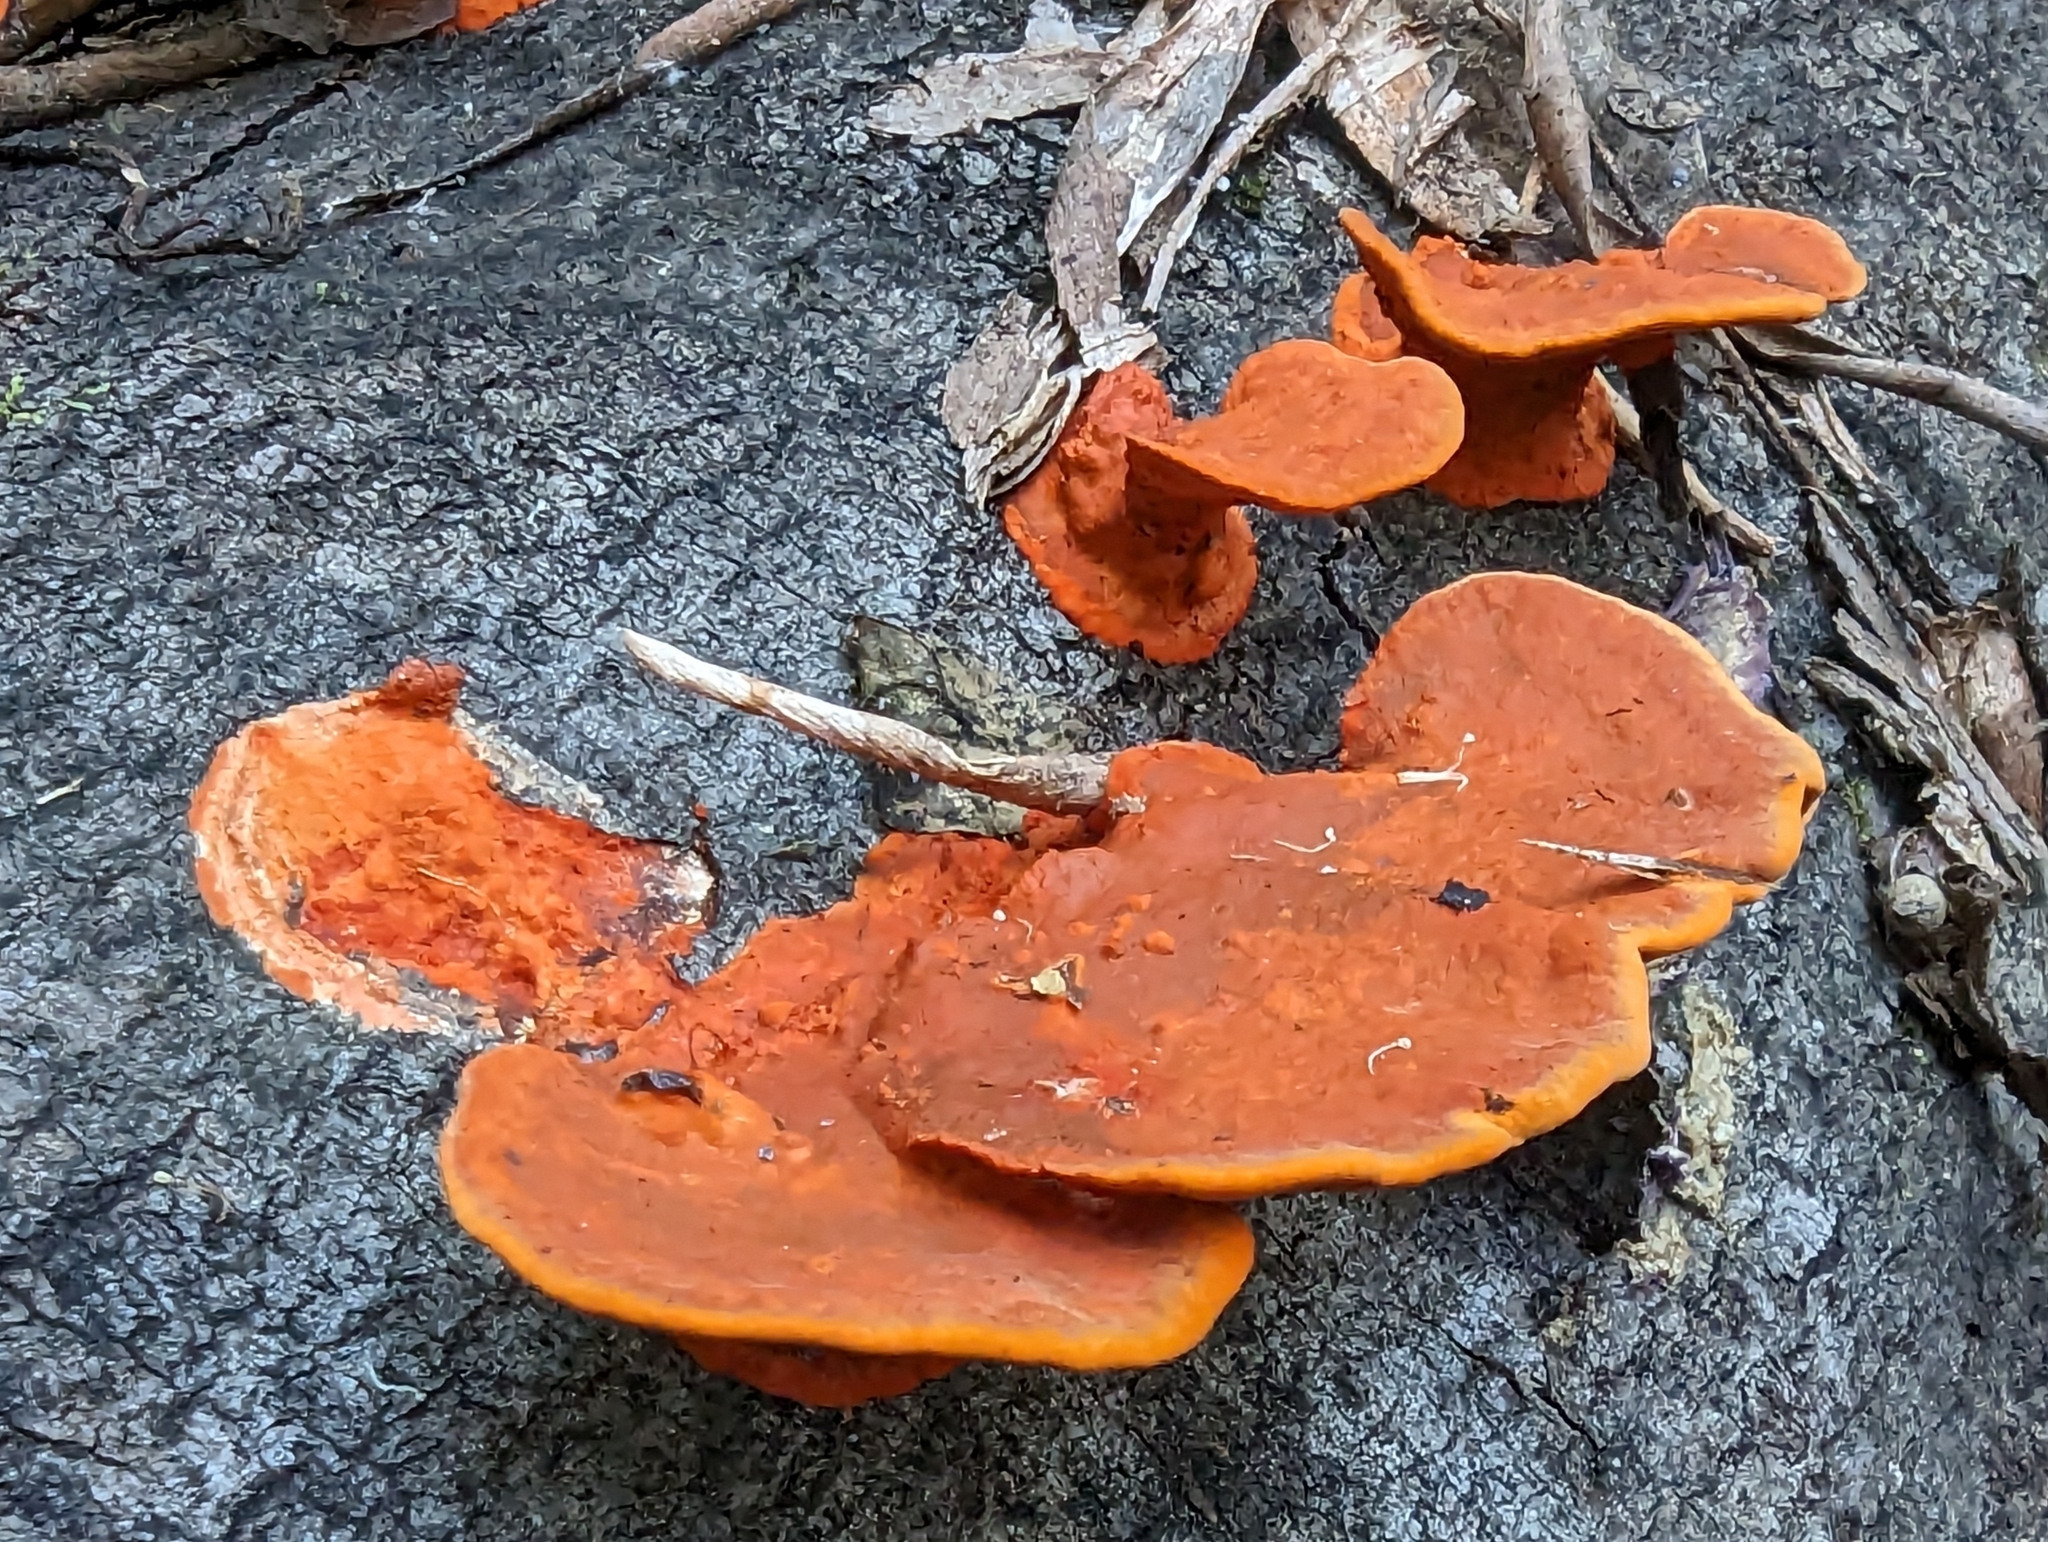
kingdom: Fungi
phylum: Basidiomycota
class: Agaricomycetes
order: Polyporales
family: Polyporaceae
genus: Trametes
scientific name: Trametes coccinea
